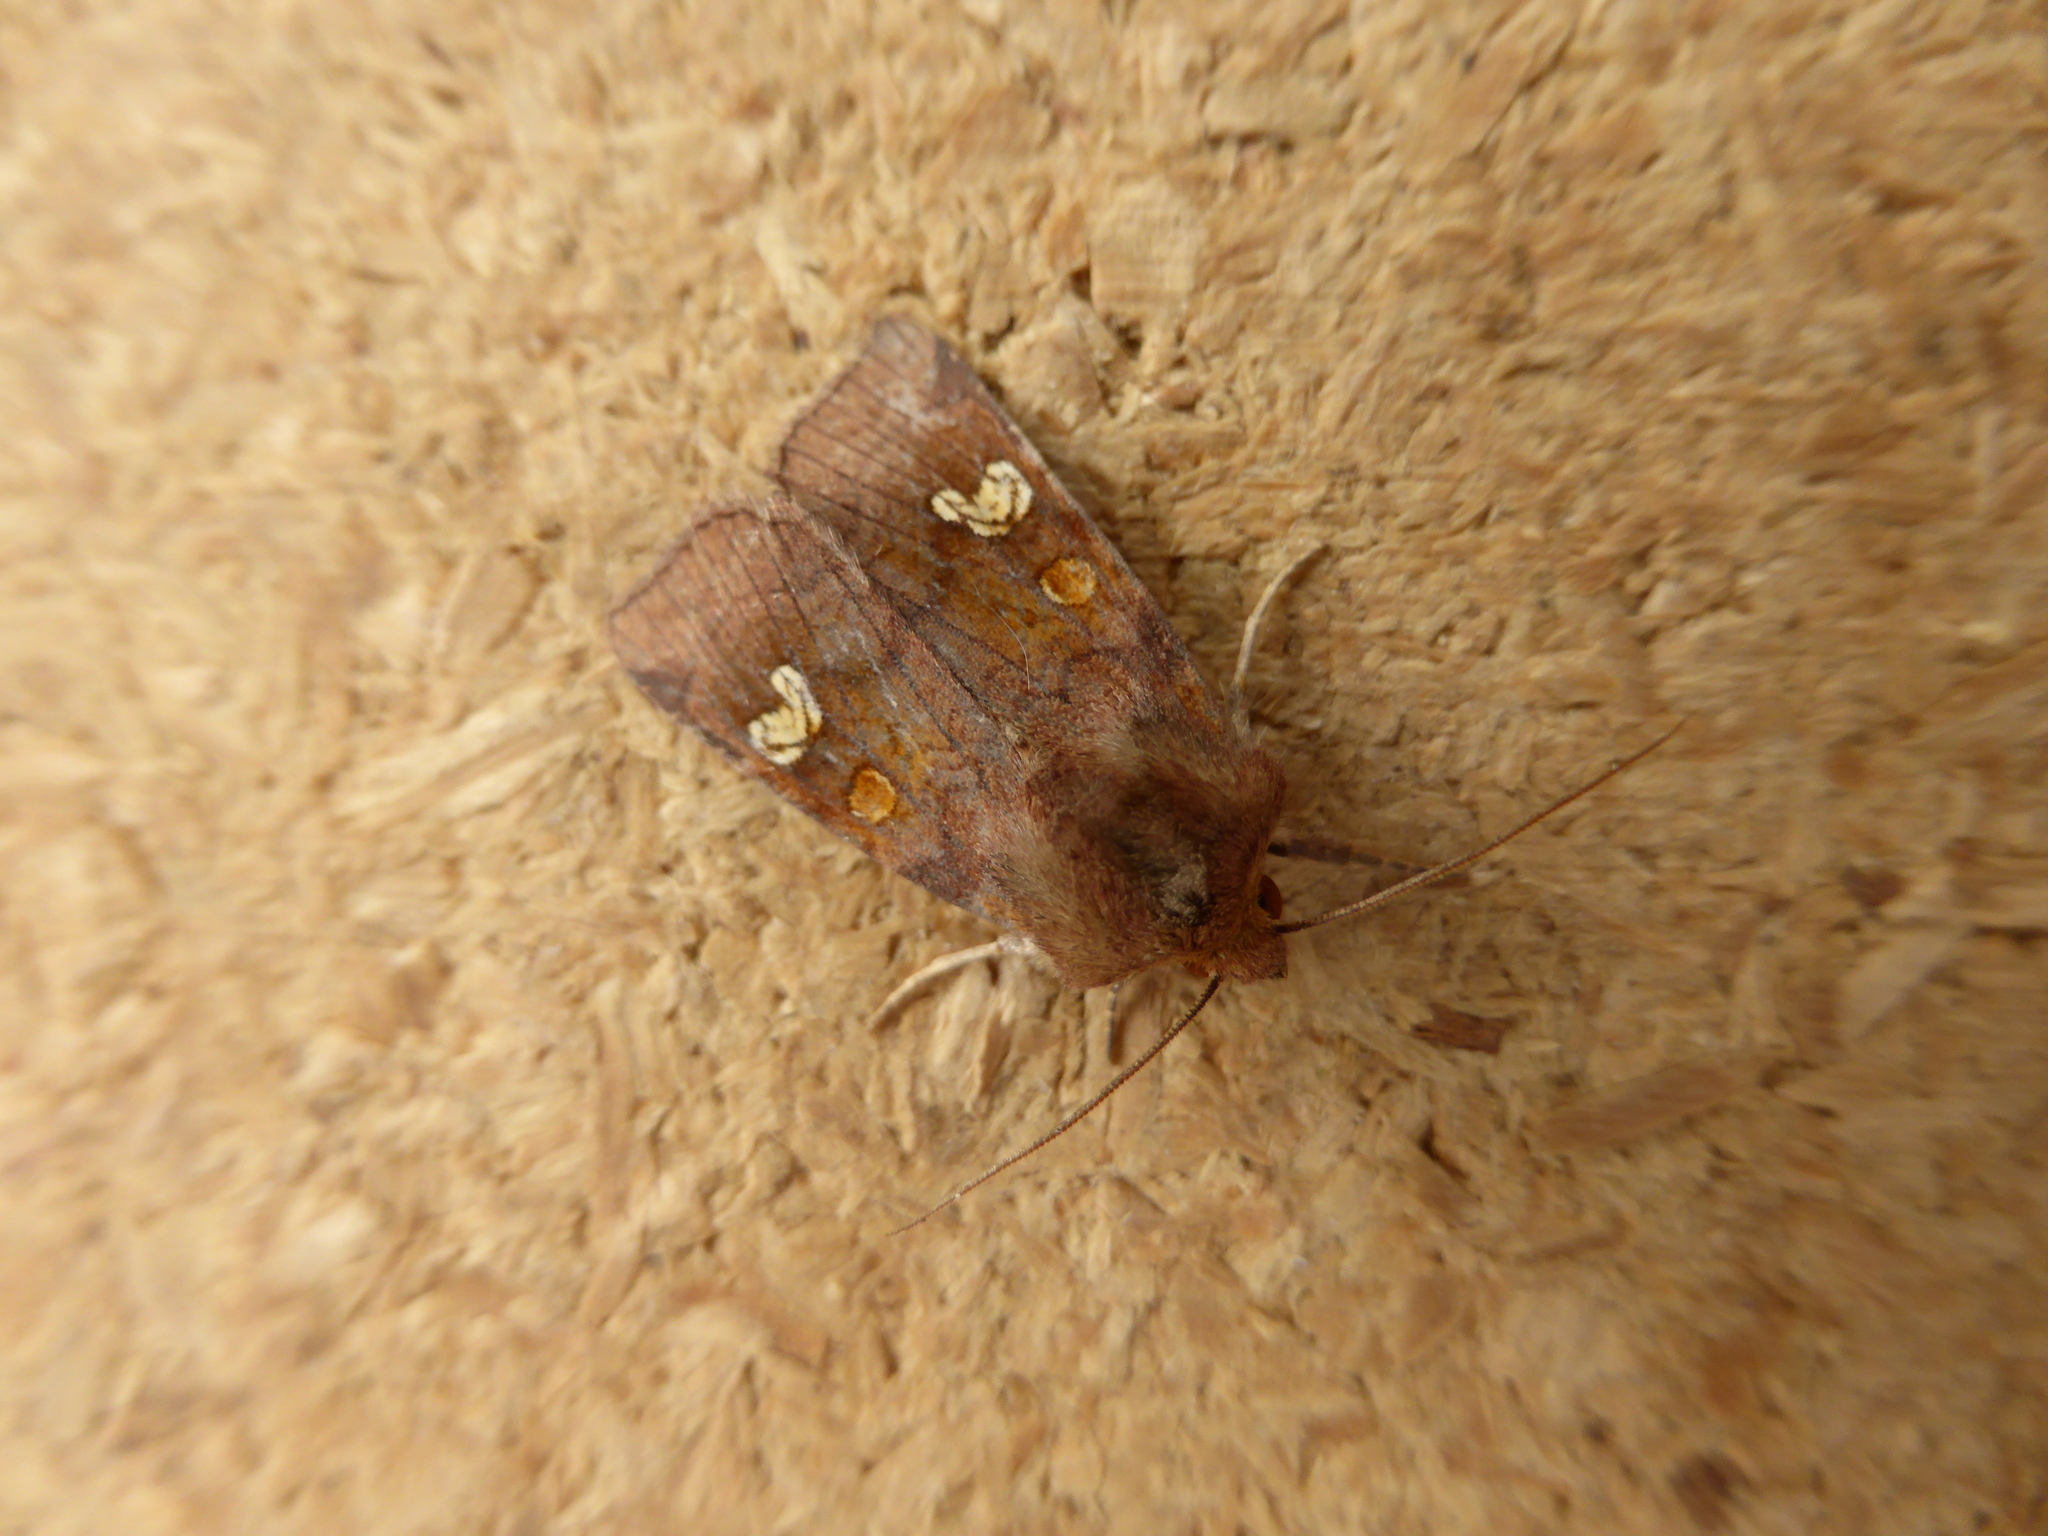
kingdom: Animalia
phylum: Arthropoda
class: Insecta
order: Lepidoptera
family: Noctuidae
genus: Amphipoea
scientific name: Amphipoea
